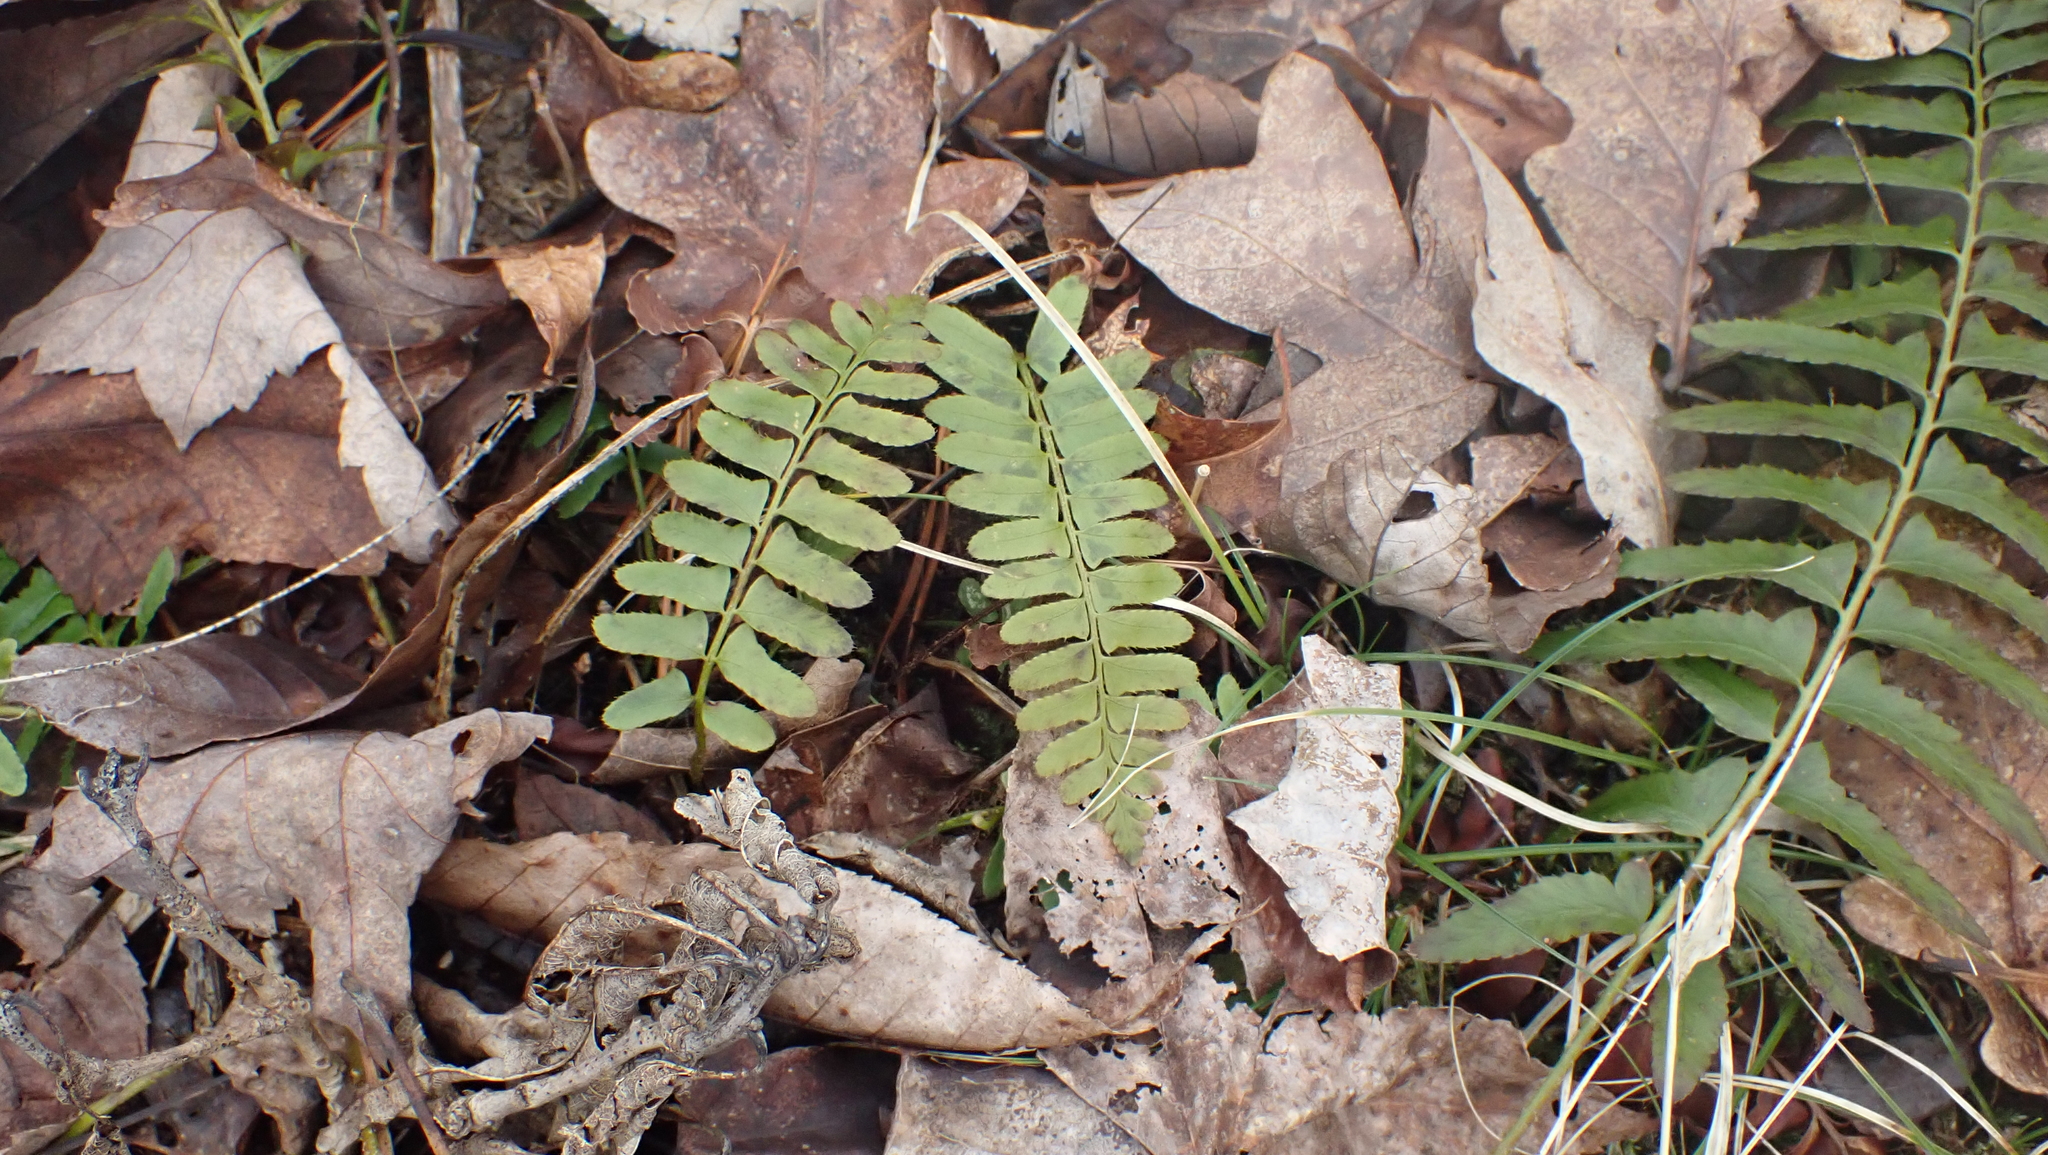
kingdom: Plantae
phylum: Tracheophyta
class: Polypodiopsida
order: Polypodiales
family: Dryopteridaceae
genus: Polystichum
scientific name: Polystichum acrostichoides
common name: Christmas fern
